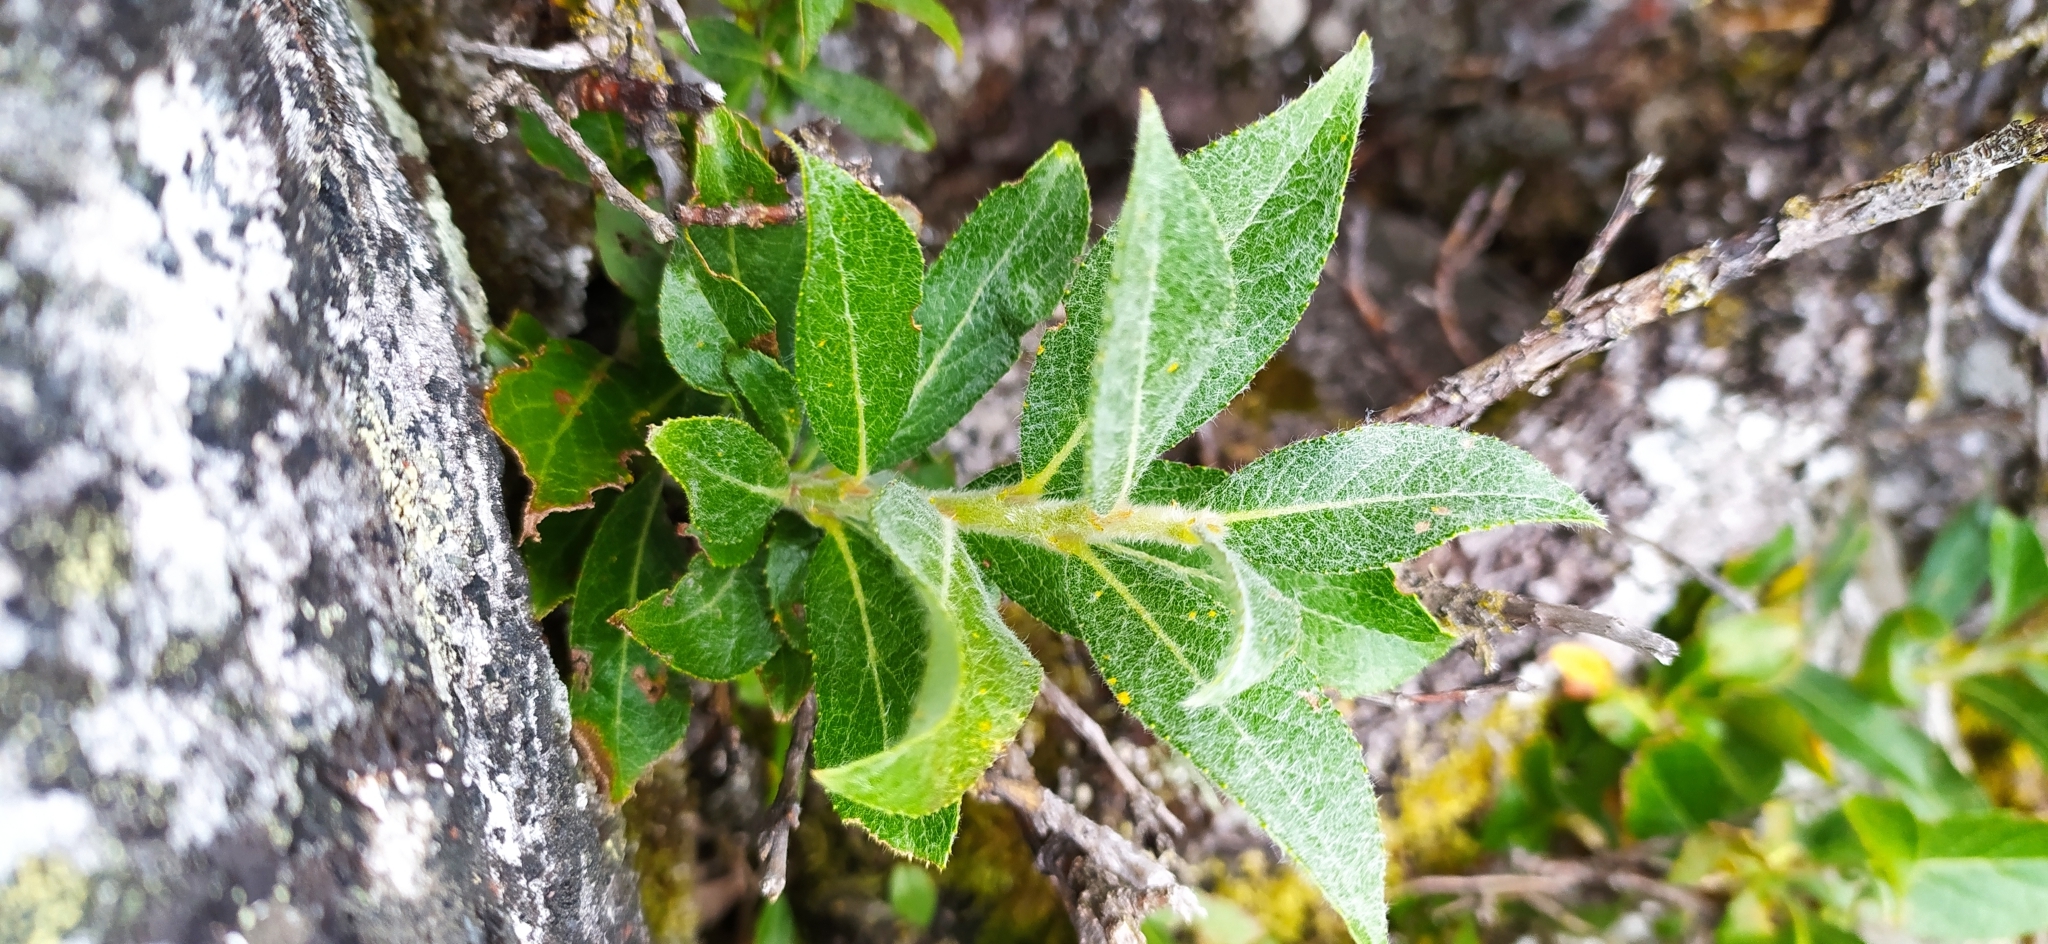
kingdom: Plantae
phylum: Tracheophyta
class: Magnoliopsida
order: Malpighiales
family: Salicaceae
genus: Salix
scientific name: Salix recurvigemmata
